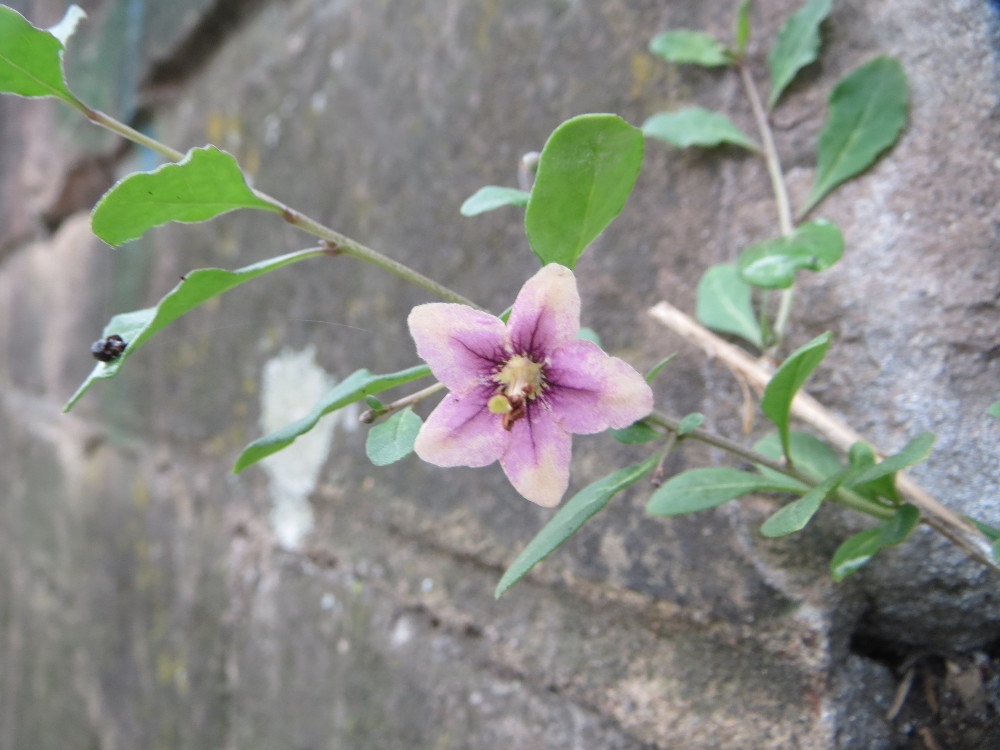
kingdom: Plantae
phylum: Tracheophyta
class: Magnoliopsida
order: Solanales
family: Solanaceae
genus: Lycium
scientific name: Lycium barbarum
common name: Duke of argyll's teaplant
